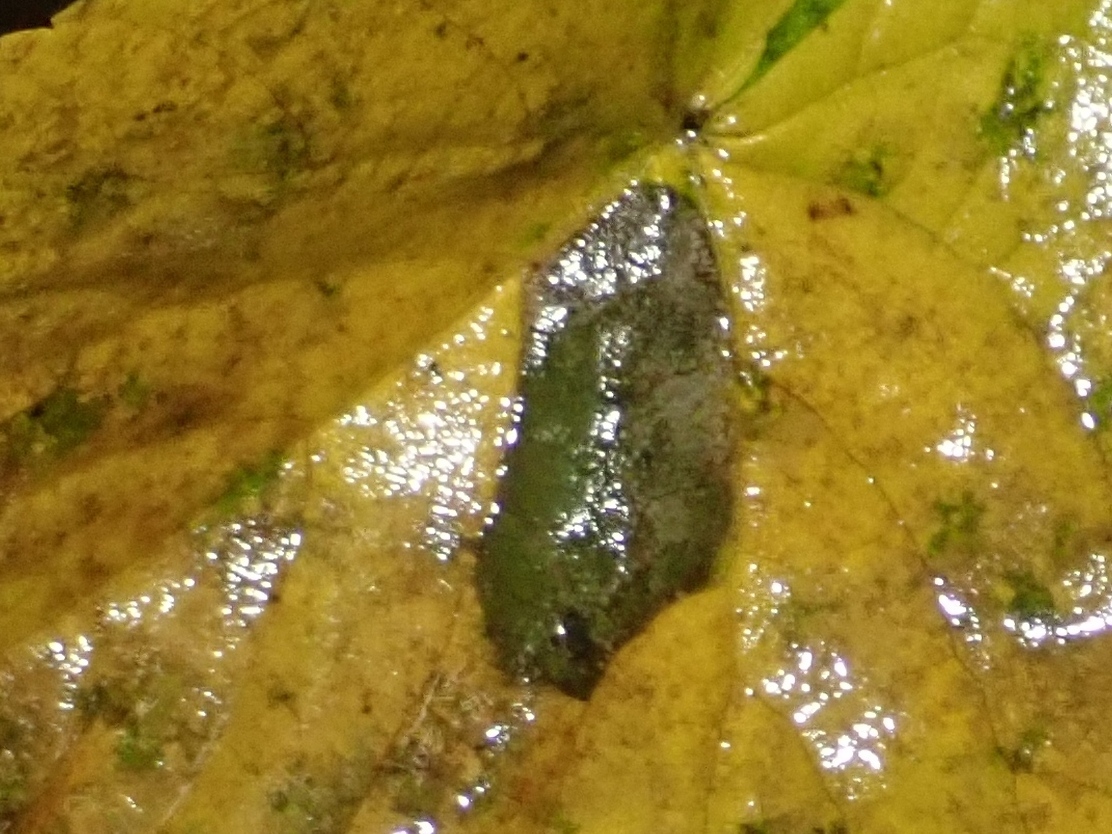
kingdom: Animalia
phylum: Arthropoda
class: Insecta
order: Lepidoptera
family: Gracillariidae
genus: Phyllonorycter
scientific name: Phyllonorycter issikii
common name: Linden midget
